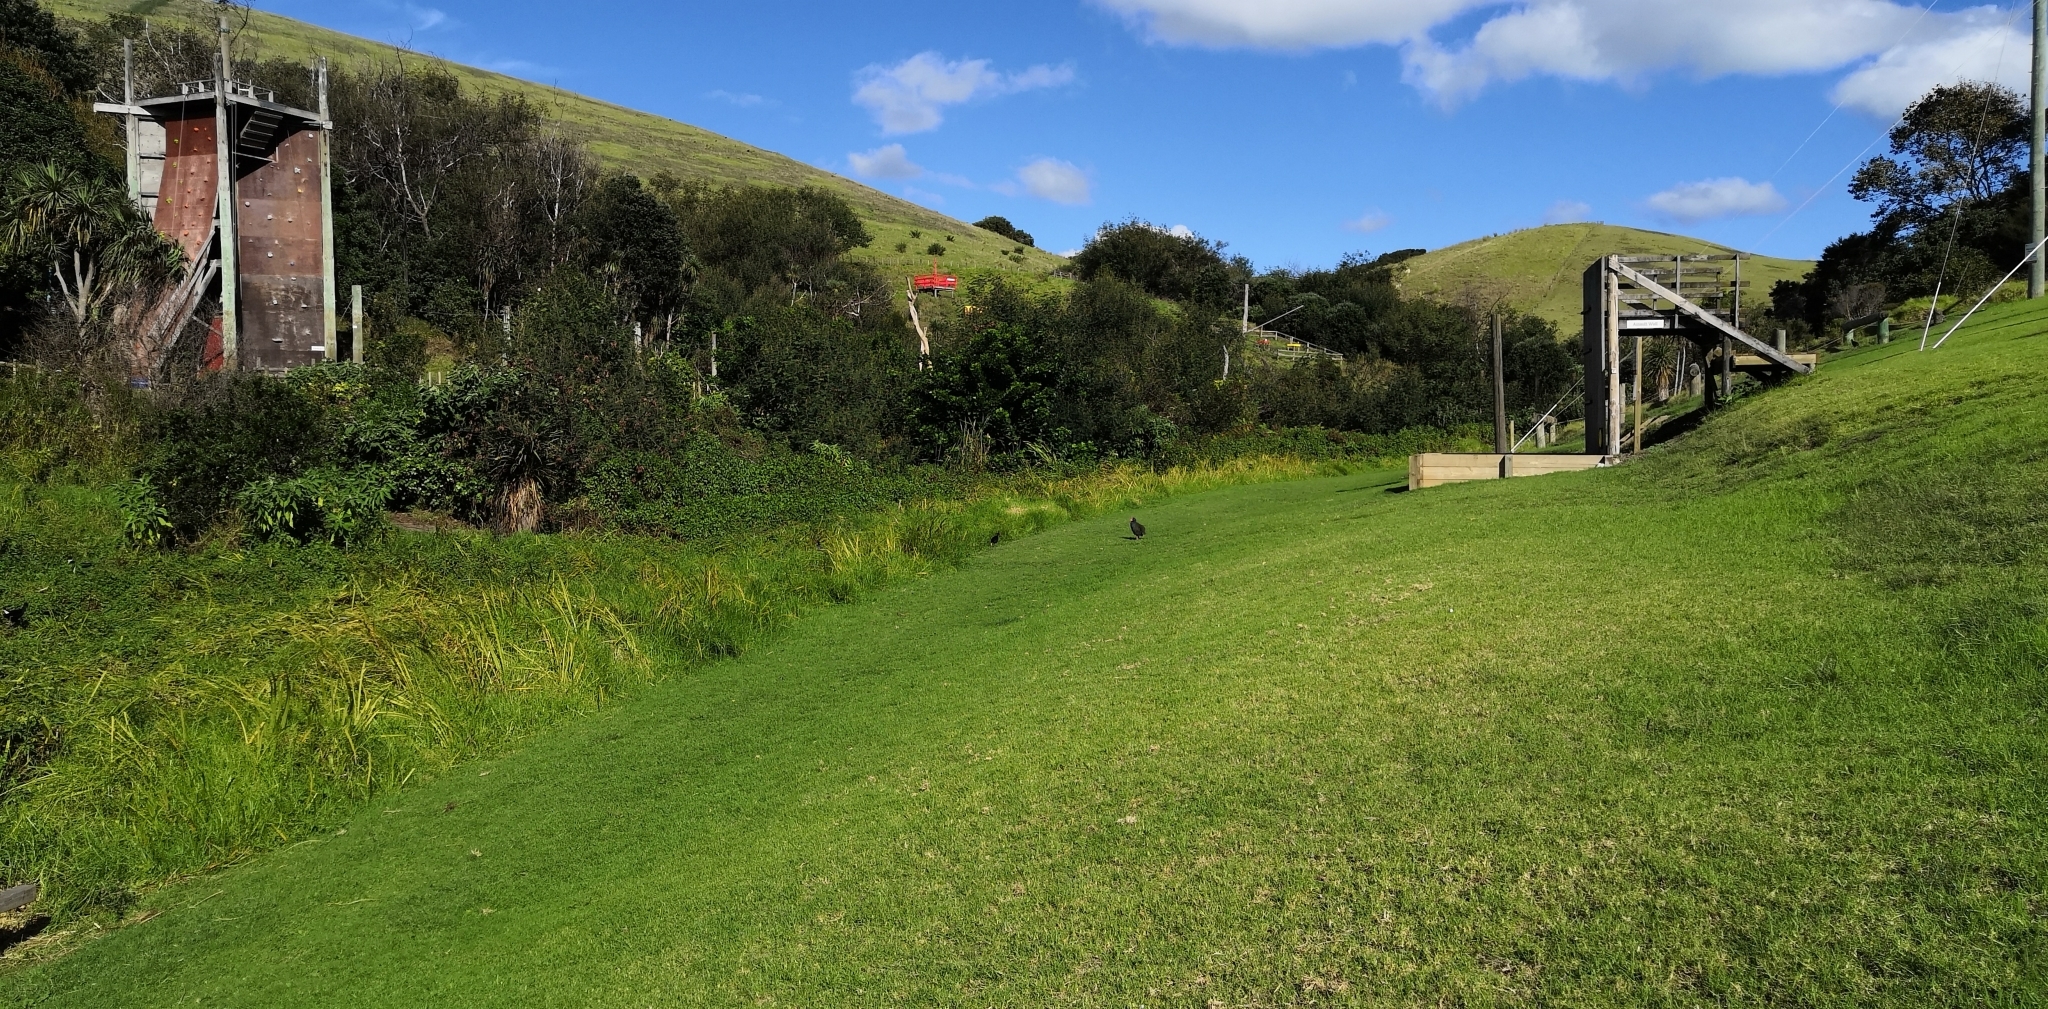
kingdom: Animalia
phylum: Chordata
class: Aves
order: Gruiformes
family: Rallidae
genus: Porphyrio
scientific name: Porphyrio hochstetteri
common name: South island takahe
